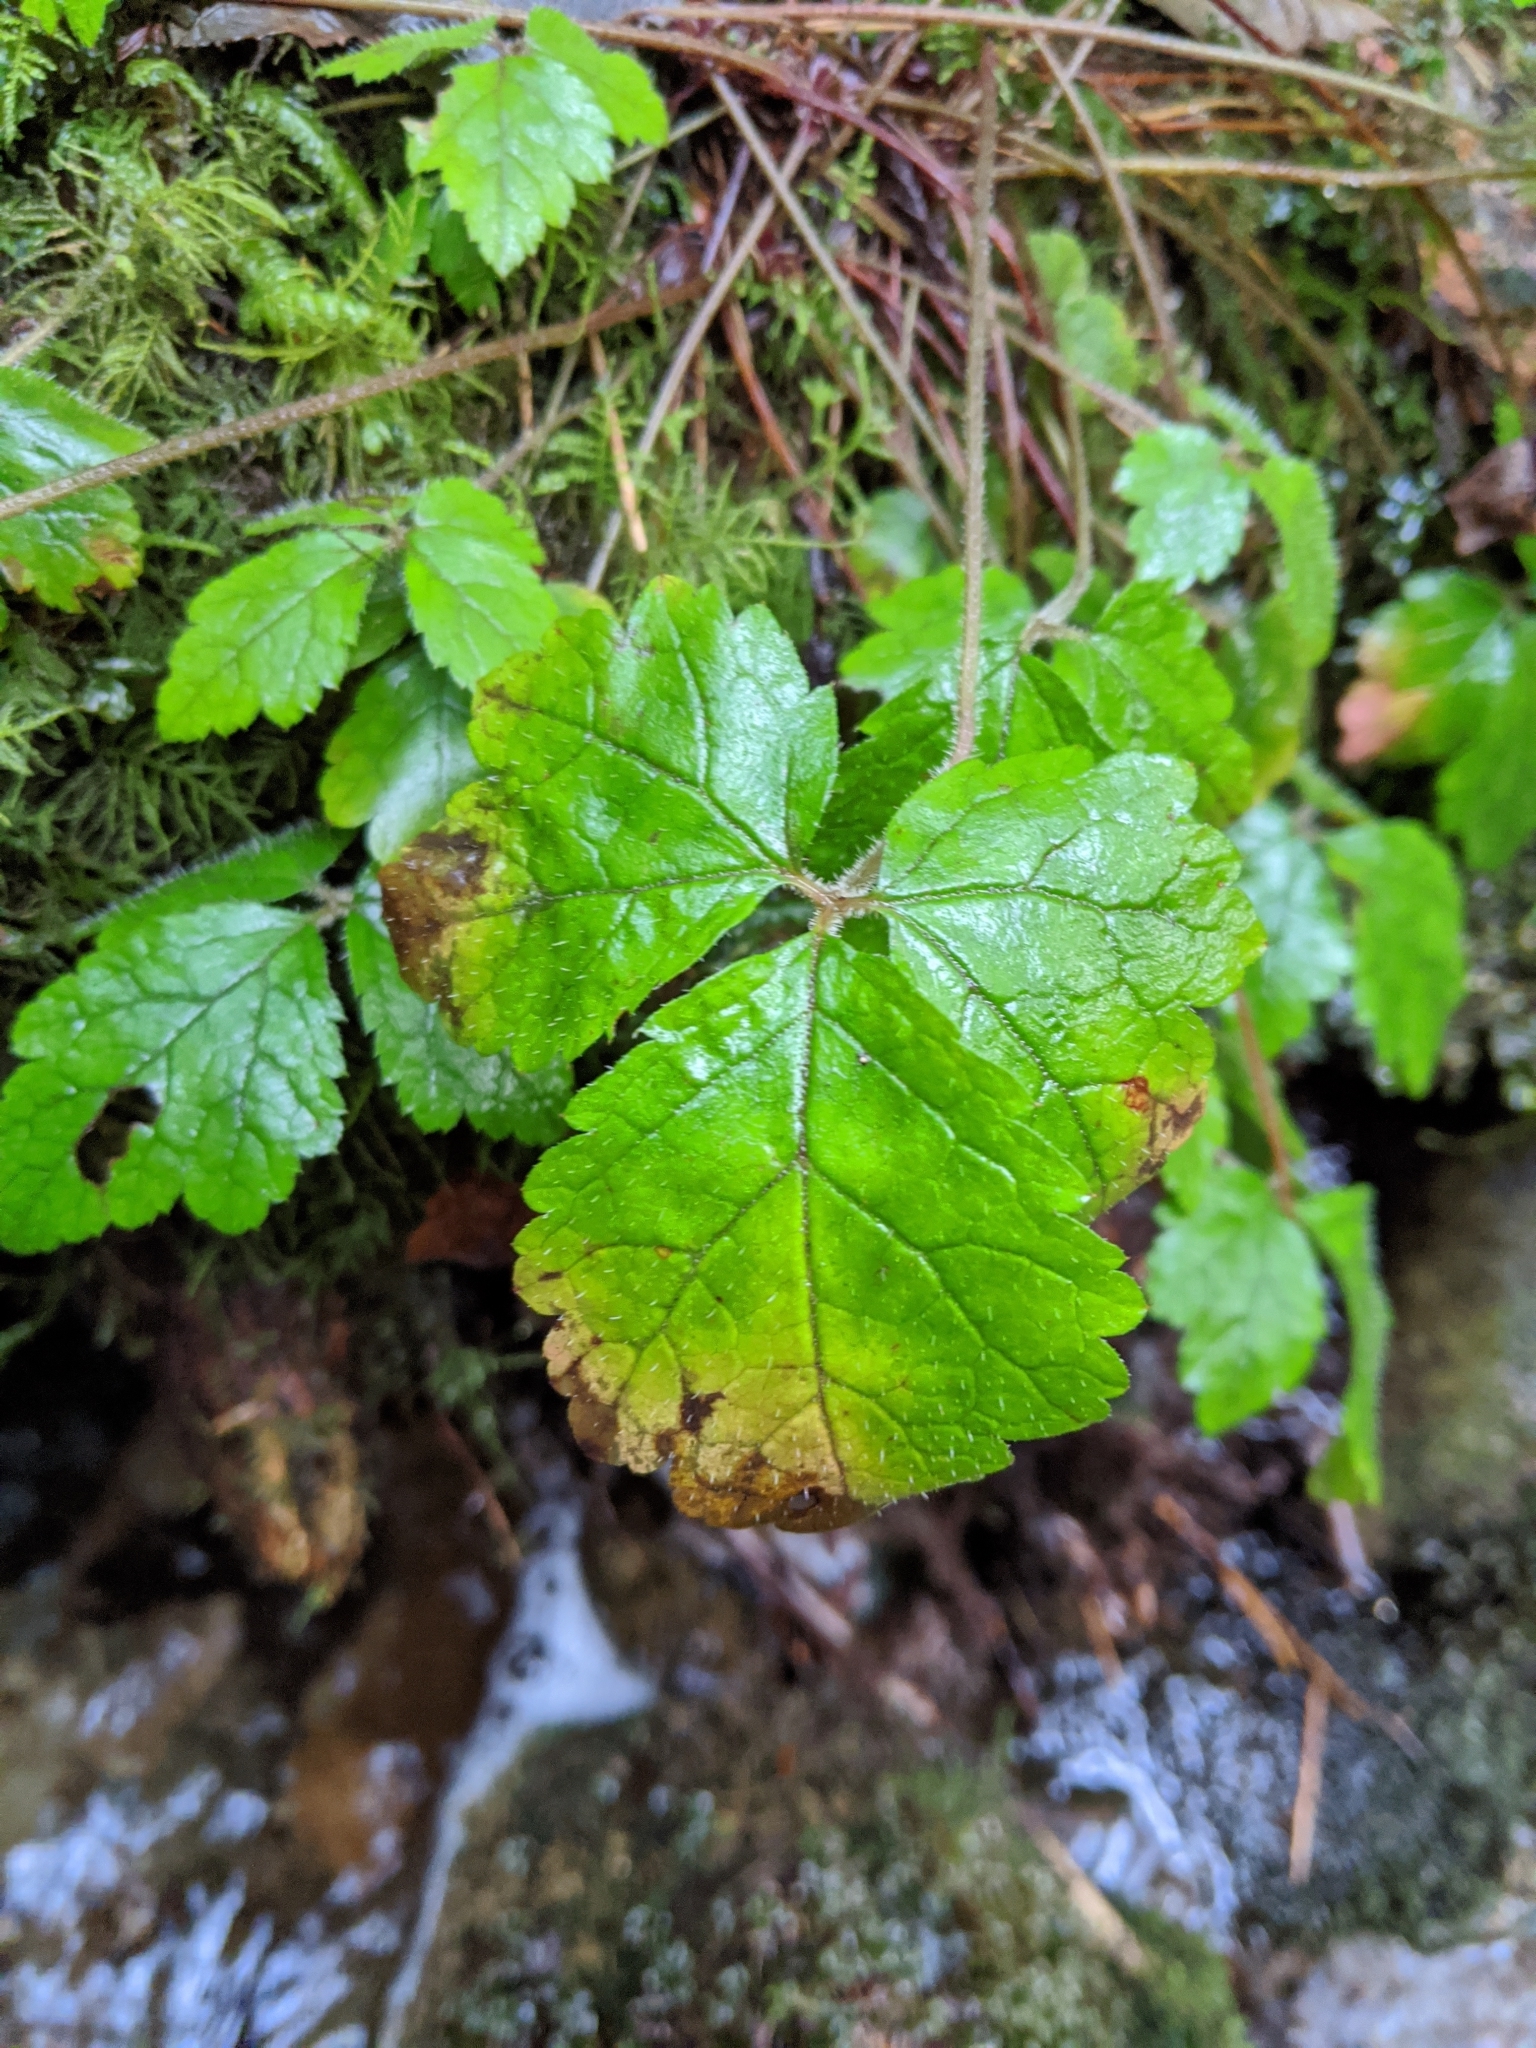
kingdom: Plantae
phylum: Tracheophyta
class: Magnoliopsida
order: Saxifragales
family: Saxifragaceae
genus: Tiarella
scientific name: Tiarella trifoliata
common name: Sugar-scoop
